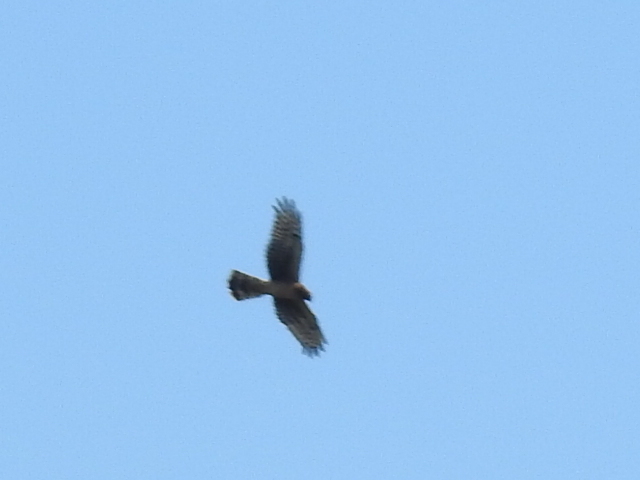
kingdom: Animalia
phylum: Chordata
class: Aves
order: Accipitriformes
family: Accipitridae
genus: Circus
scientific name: Circus cyaneus
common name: Hen harrier
